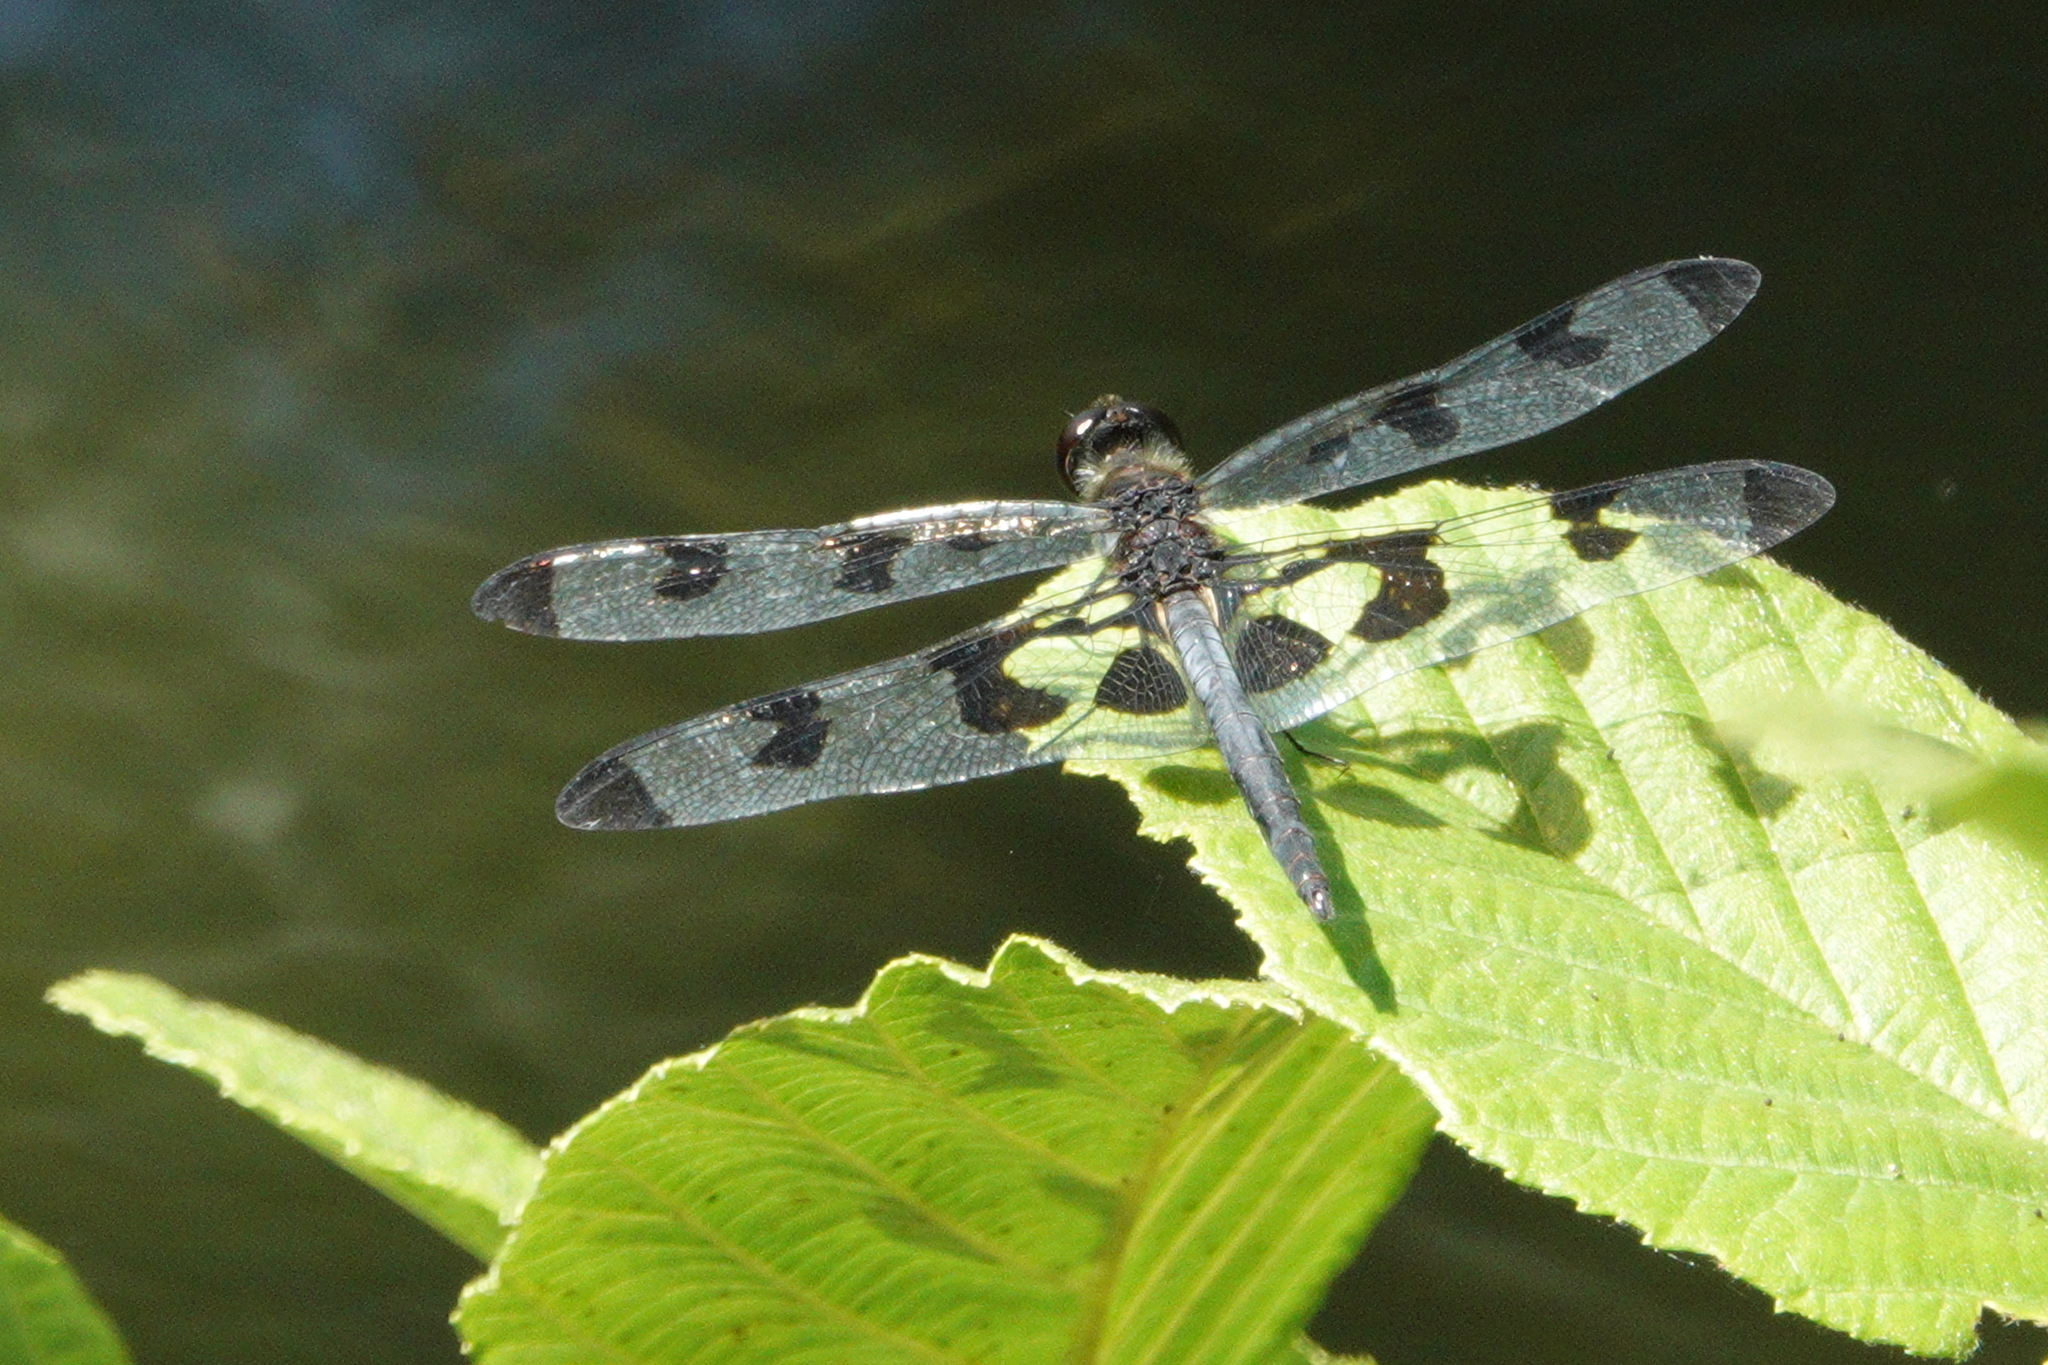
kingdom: Animalia
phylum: Arthropoda
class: Insecta
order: Odonata
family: Libellulidae
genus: Celithemis
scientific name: Celithemis fasciata
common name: Banded pennant
